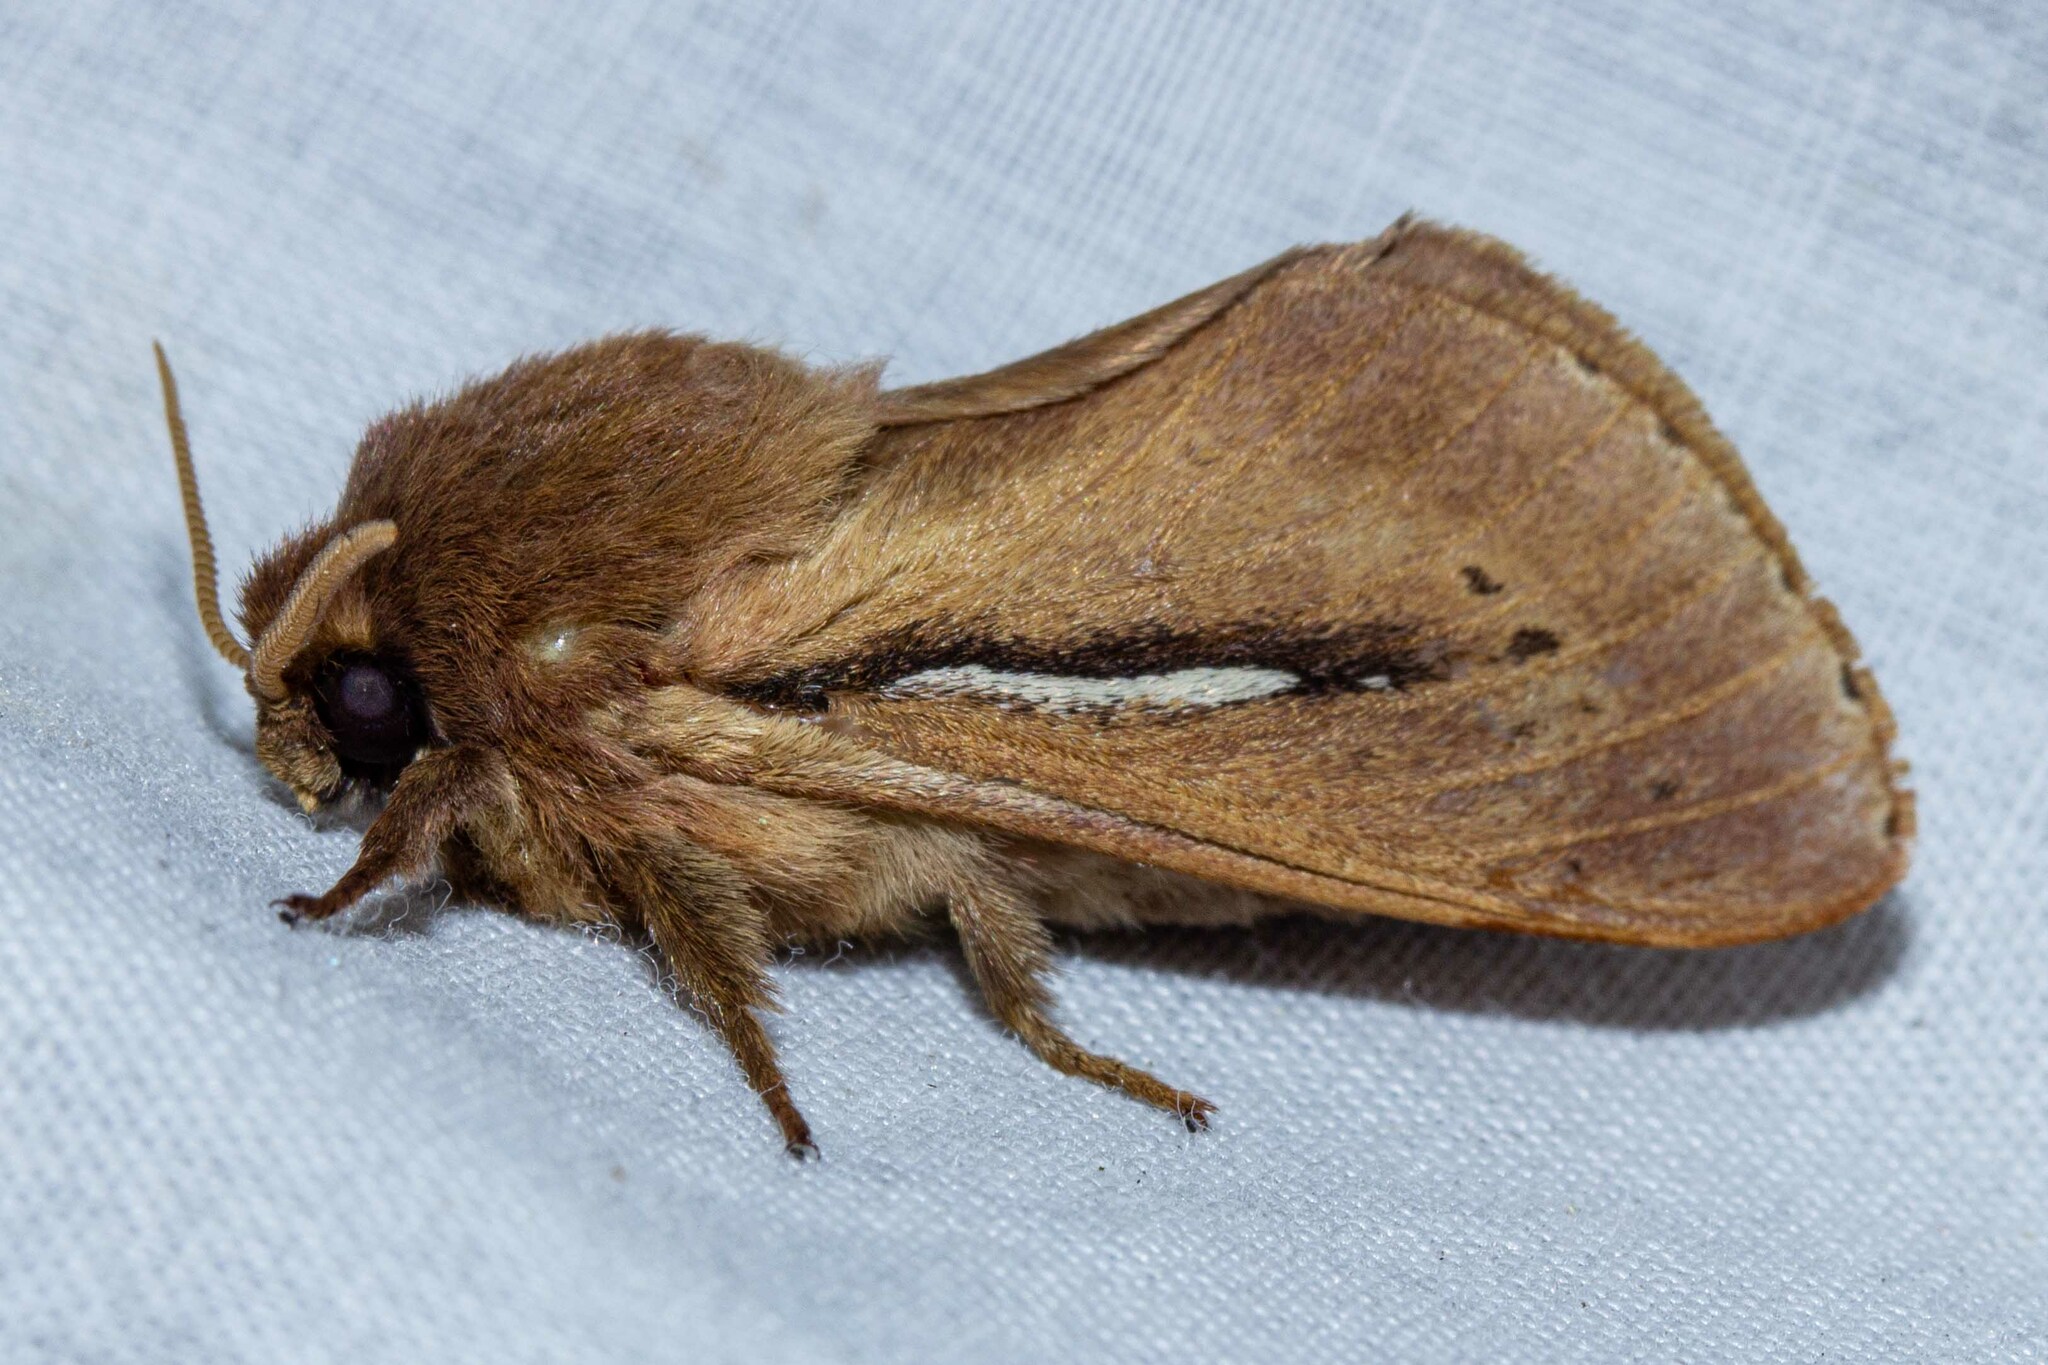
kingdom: Animalia
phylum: Arthropoda
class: Insecta
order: Lepidoptera
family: Hepialidae
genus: Wiseana
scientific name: Wiseana umbraculatus
